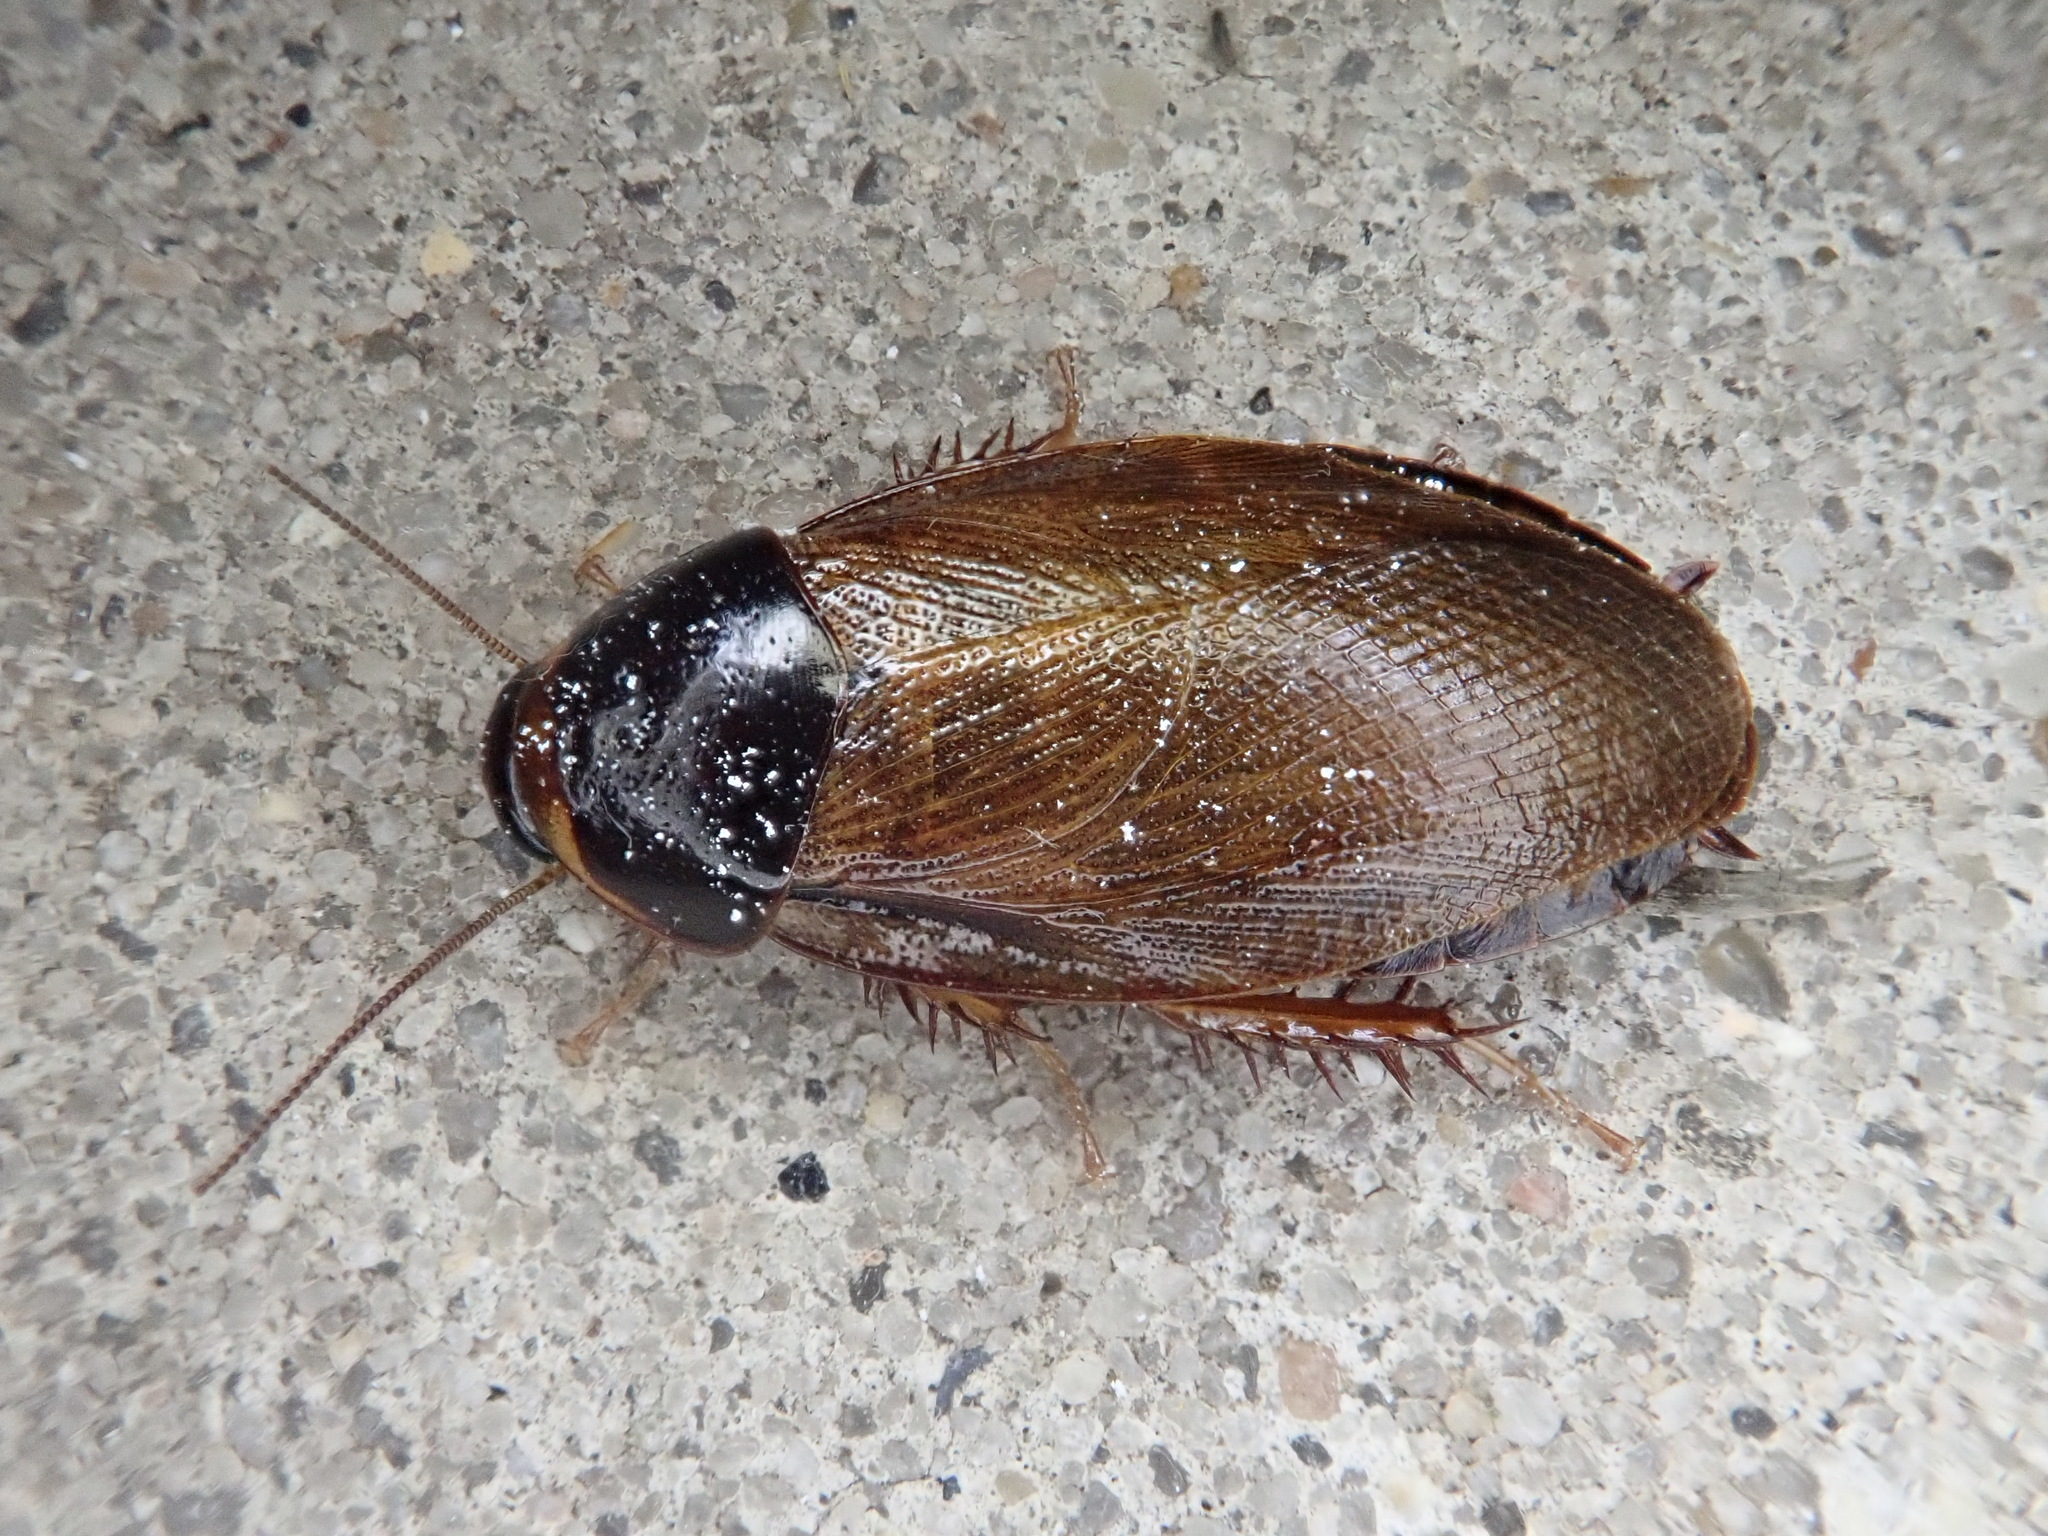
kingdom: Animalia
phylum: Arthropoda
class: Insecta
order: Blattodea
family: Blaberidae
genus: Pycnoscelus
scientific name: Pycnoscelus surinamensis
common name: Surinam cockroach
